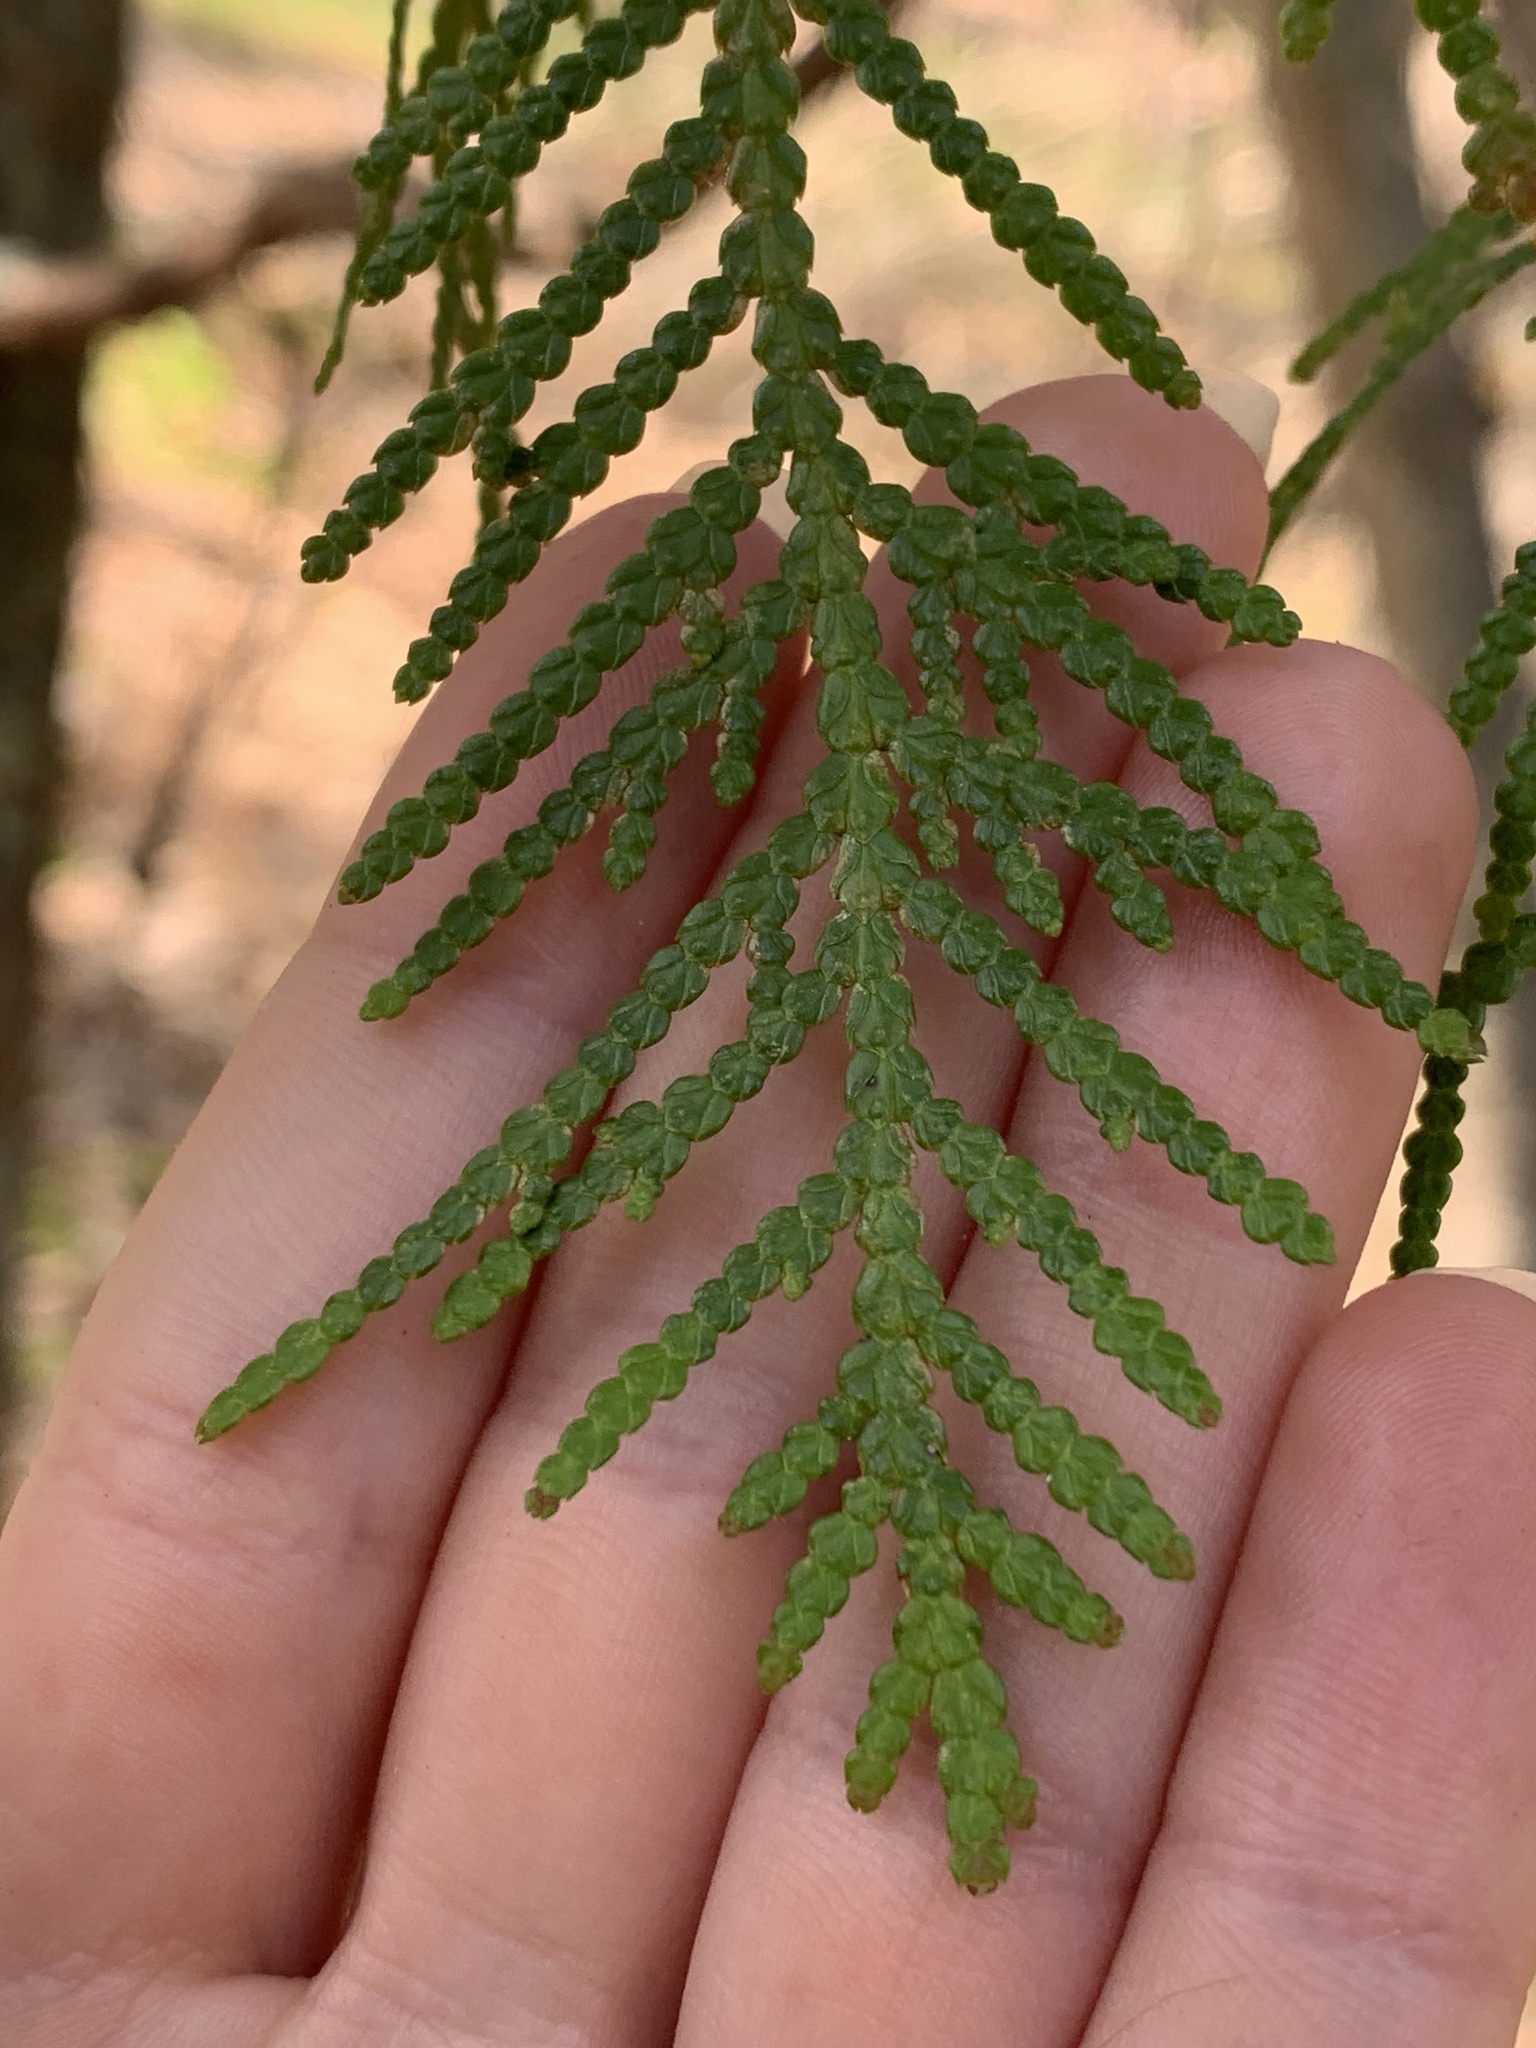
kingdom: Plantae
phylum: Tracheophyta
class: Pinopsida
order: Pinales
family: Cupressaceae
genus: Thuja
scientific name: Thuja occidentalis
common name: Northern white-cedar
